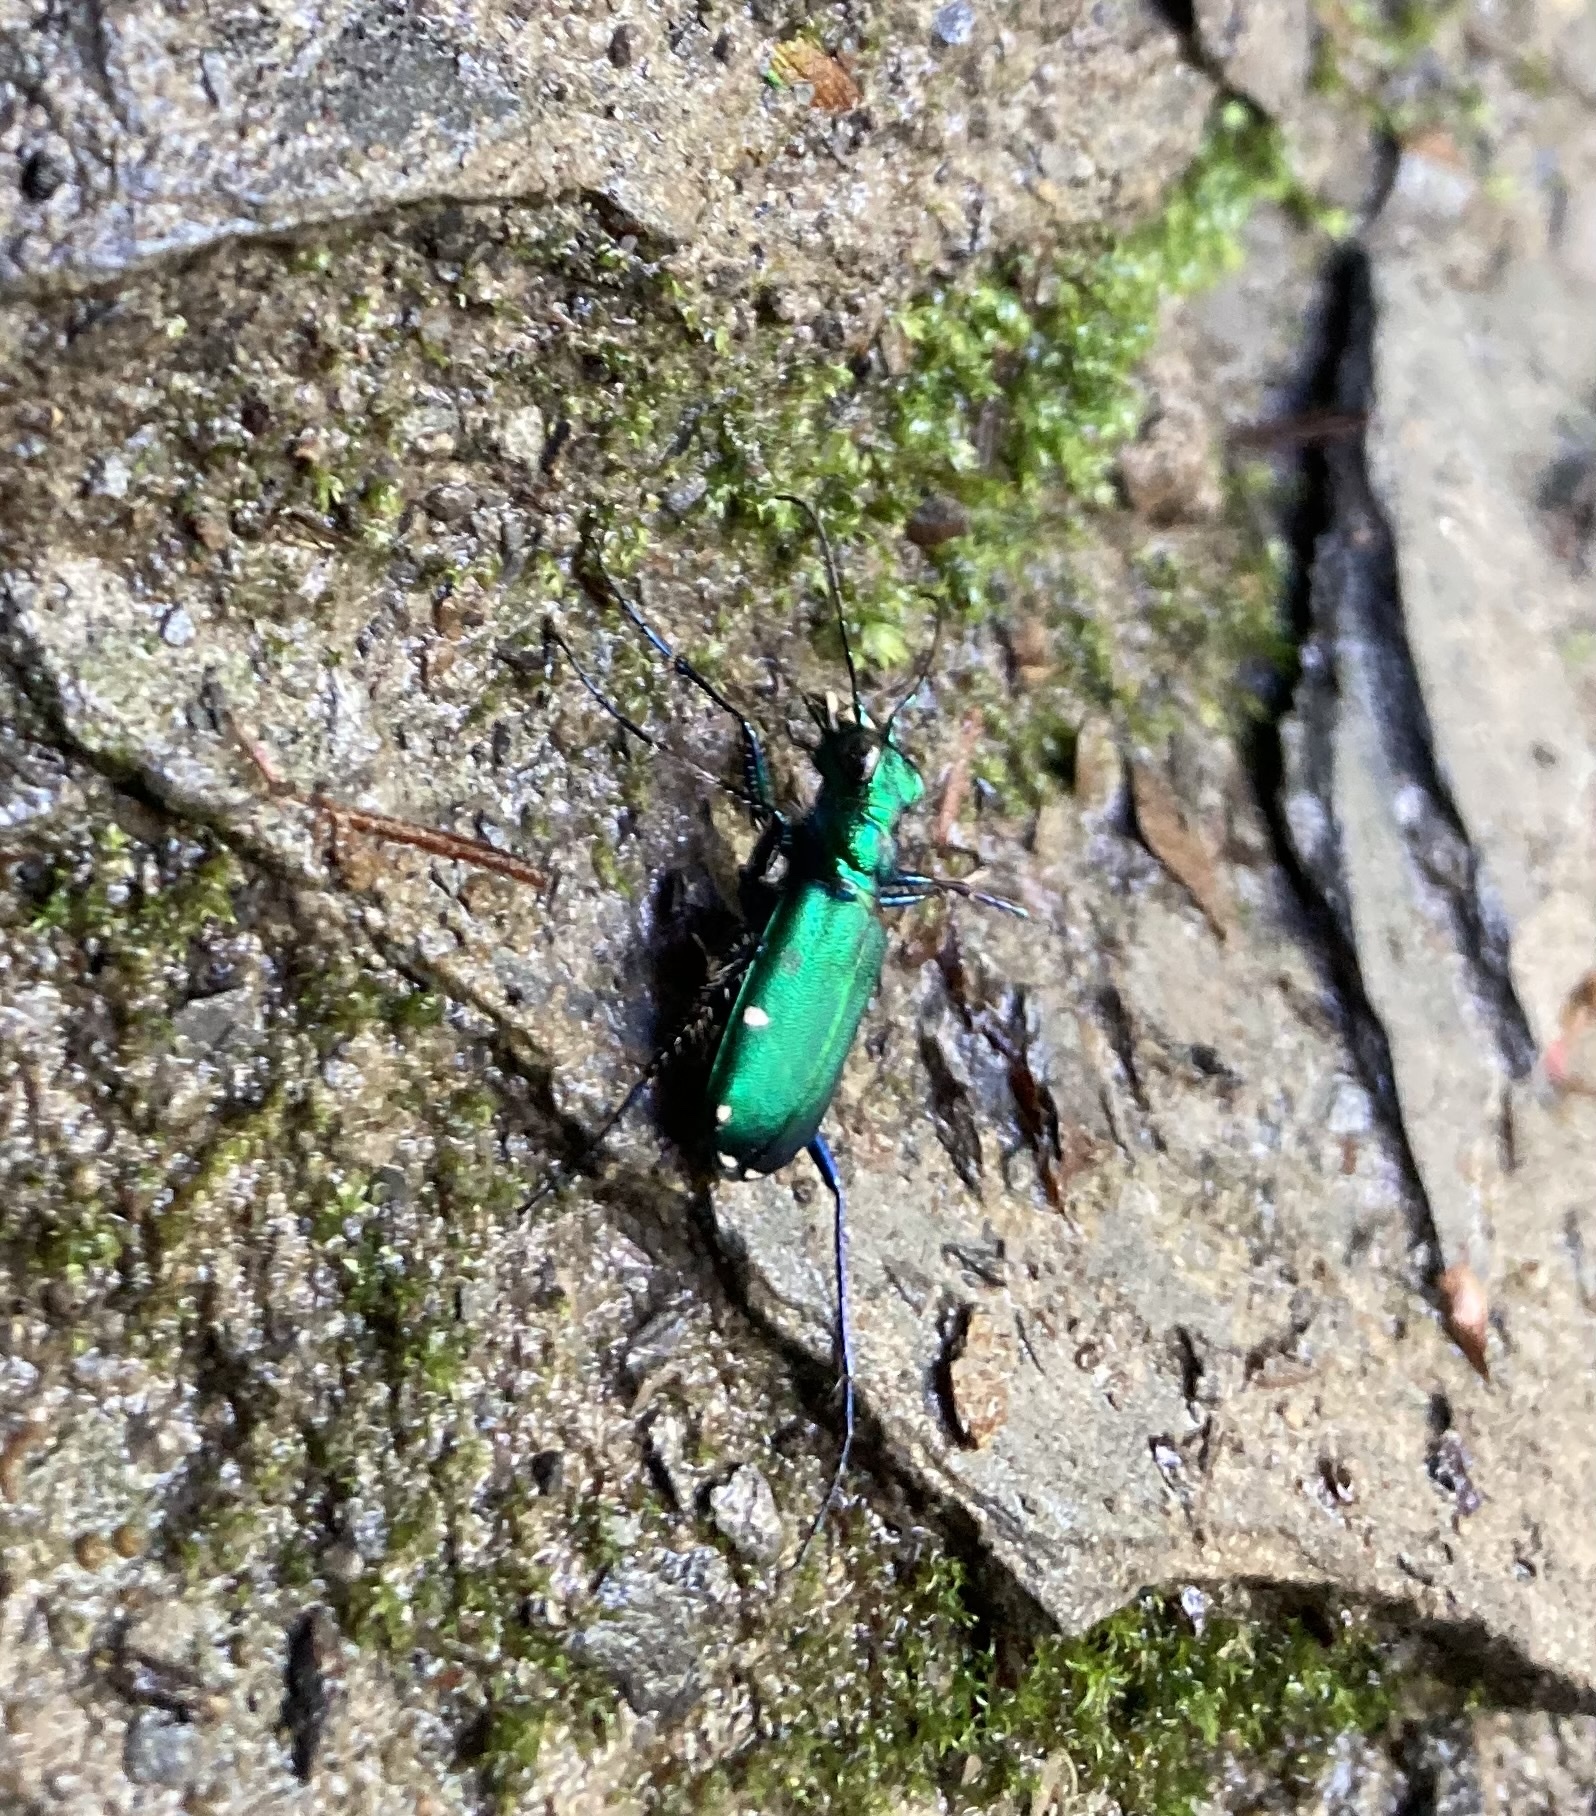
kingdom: Animalia
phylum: Arthropoda
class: Insecta
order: Coleoptera
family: Carabidae
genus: Cicindela
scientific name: Cicindela sexguttata
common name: Six-spotted tiger beetle
